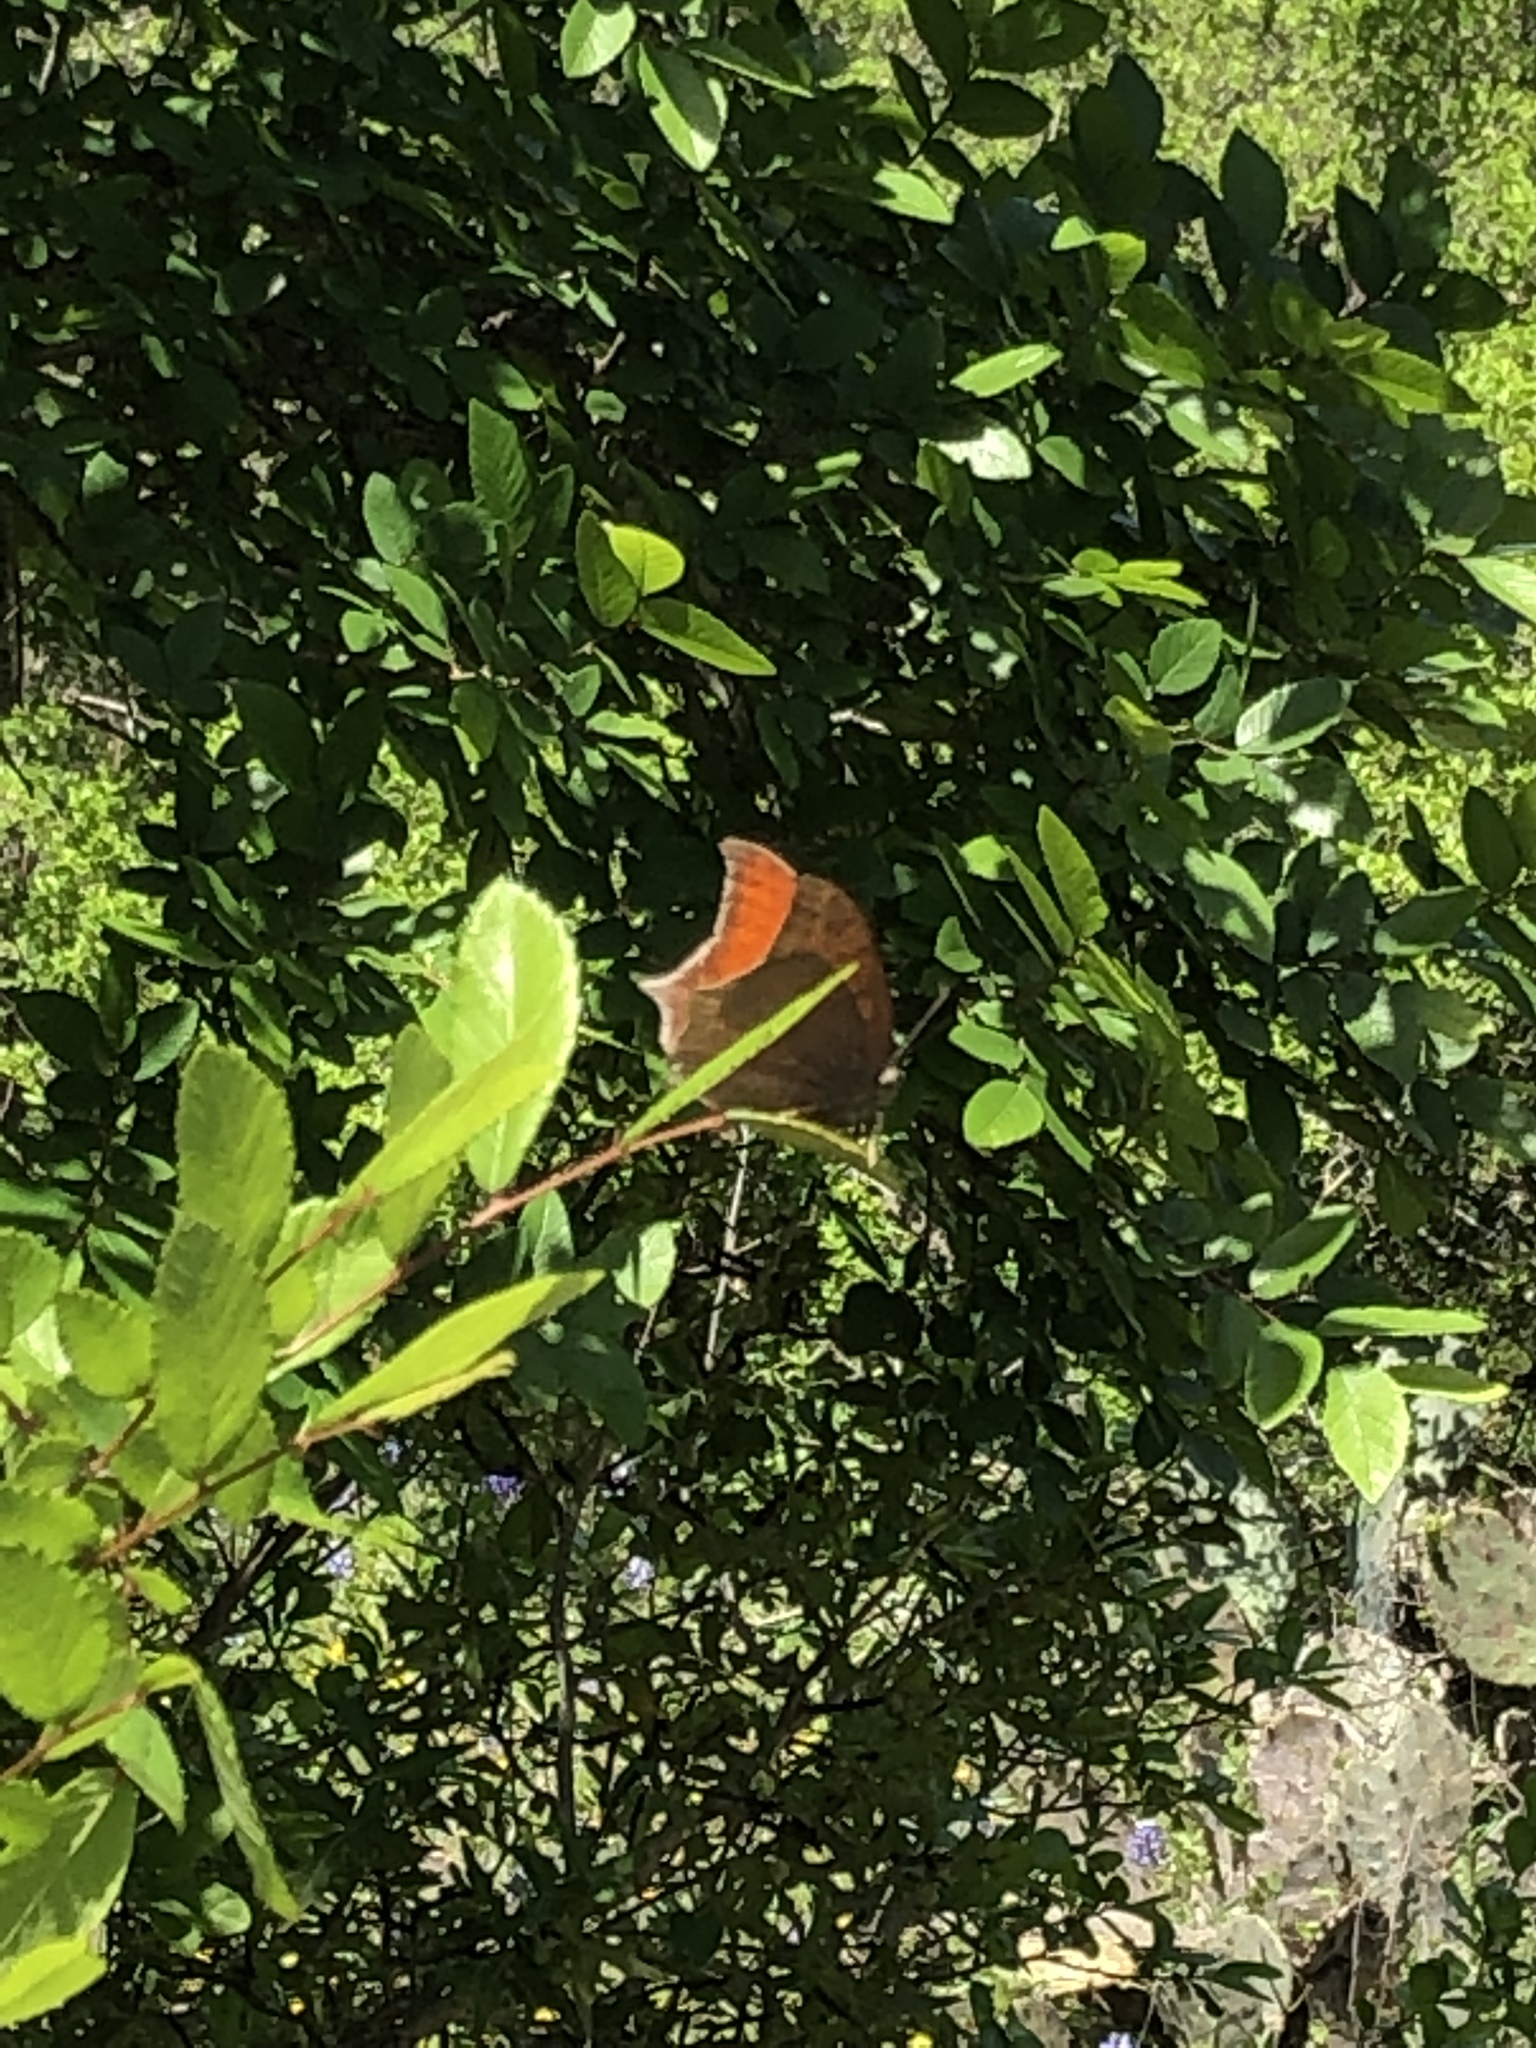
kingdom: Animalia
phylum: Arthropoda
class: Insecta
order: Lepidoptera
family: Nymphalidae
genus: Anaea
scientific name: Anaea andria
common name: Goatweed leafwing
